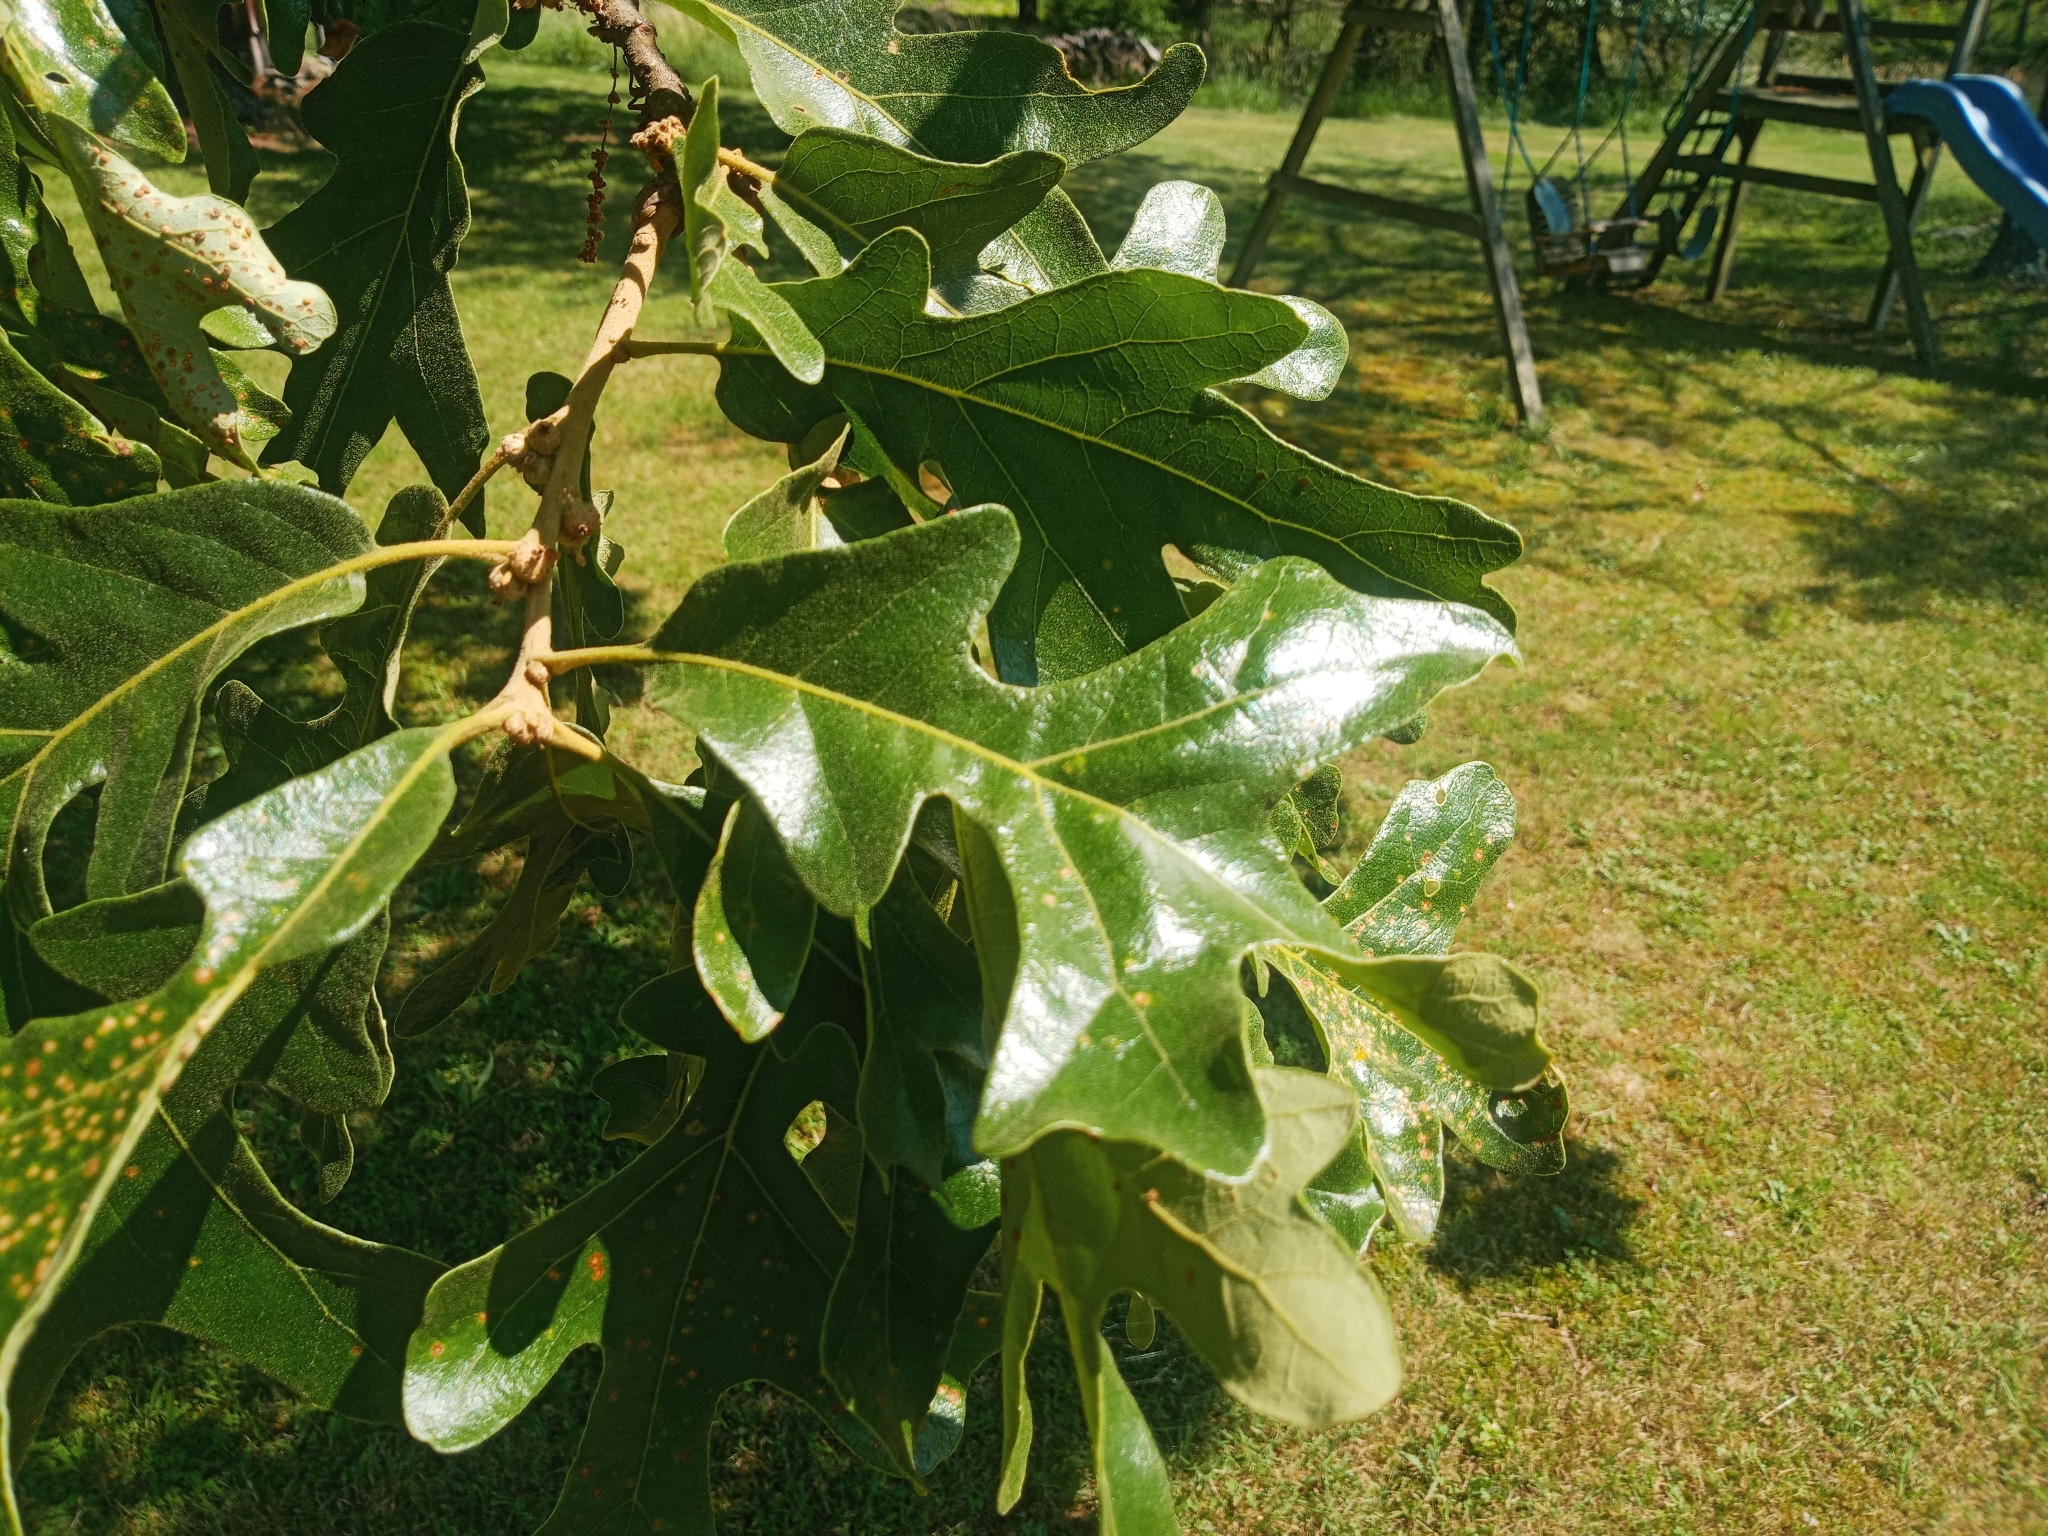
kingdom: Plantae
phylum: Tracheophyta
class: Magnoliopsida
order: Fagales
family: Fagaceae
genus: Quercus
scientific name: Quercus stellata
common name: Post oak
